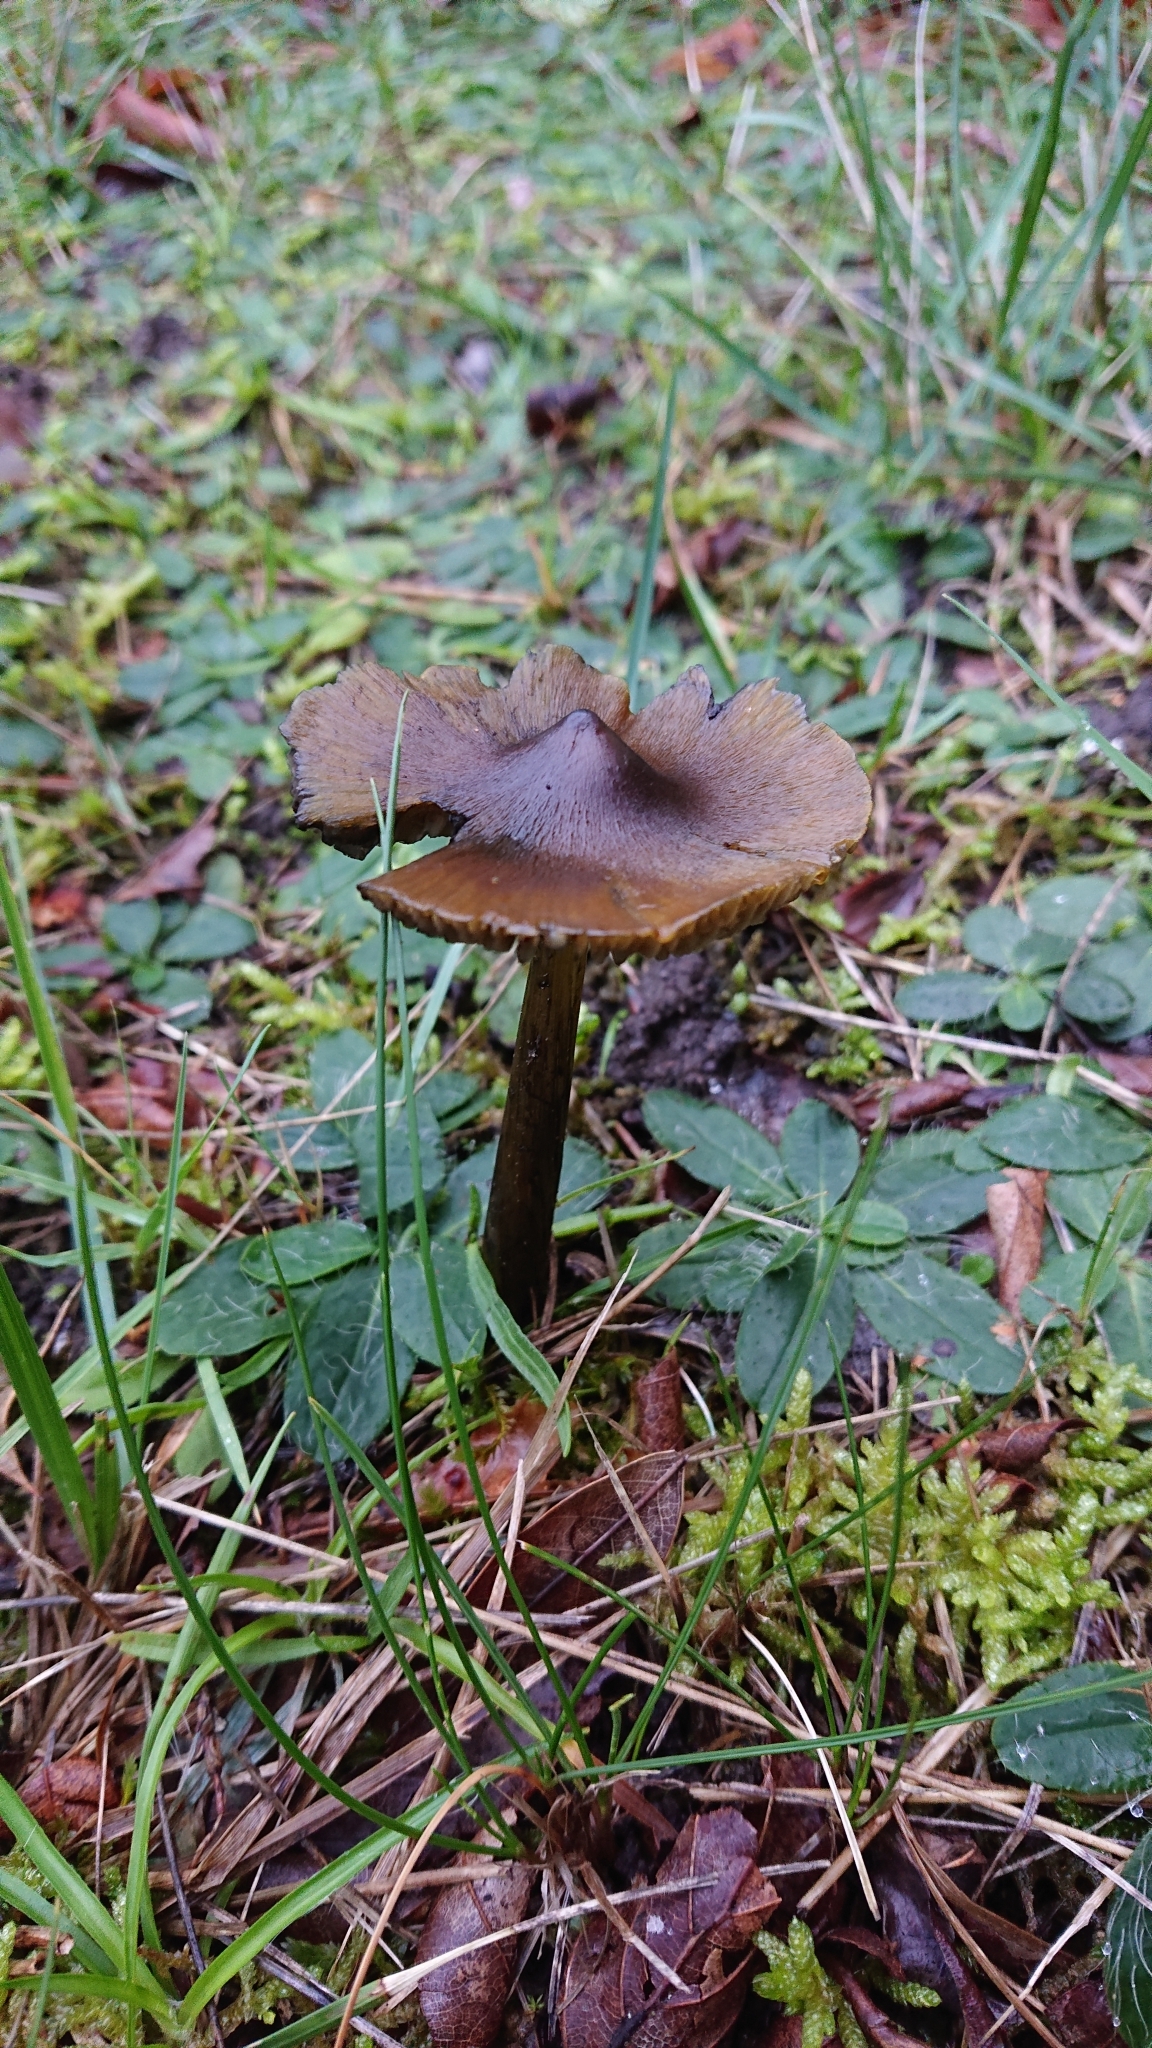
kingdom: Fungi
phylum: Basidiomycota
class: Agaricomycetes
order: Agaricales
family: Hygrophoraceae
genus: Hygrocybe
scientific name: Hygrocybe conica
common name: Blackening wax-cap
